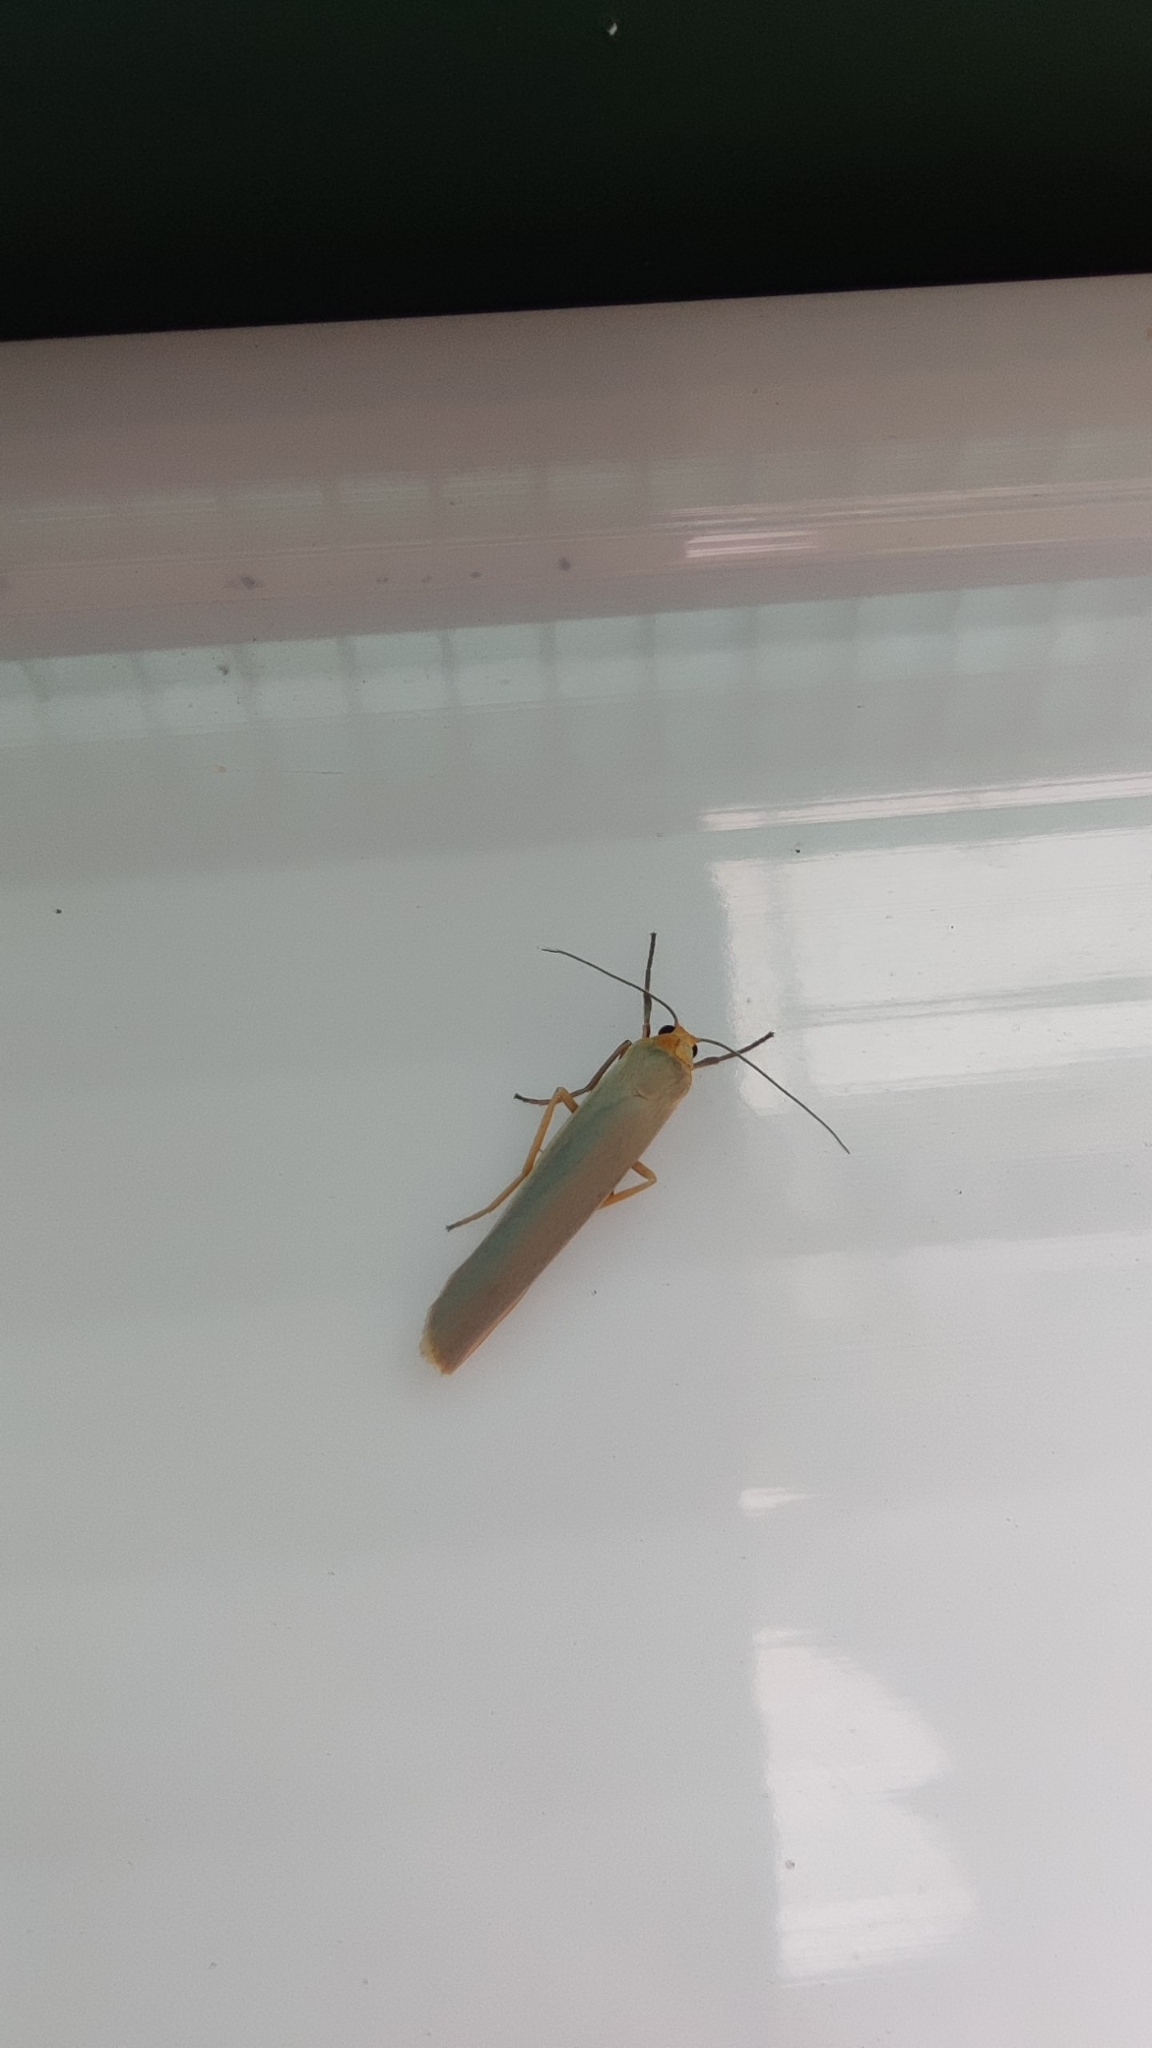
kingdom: Animalia
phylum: Arthropoda
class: Insecta
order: Lepidoptera
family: Erebidae
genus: Manulea
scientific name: Manulea complana
